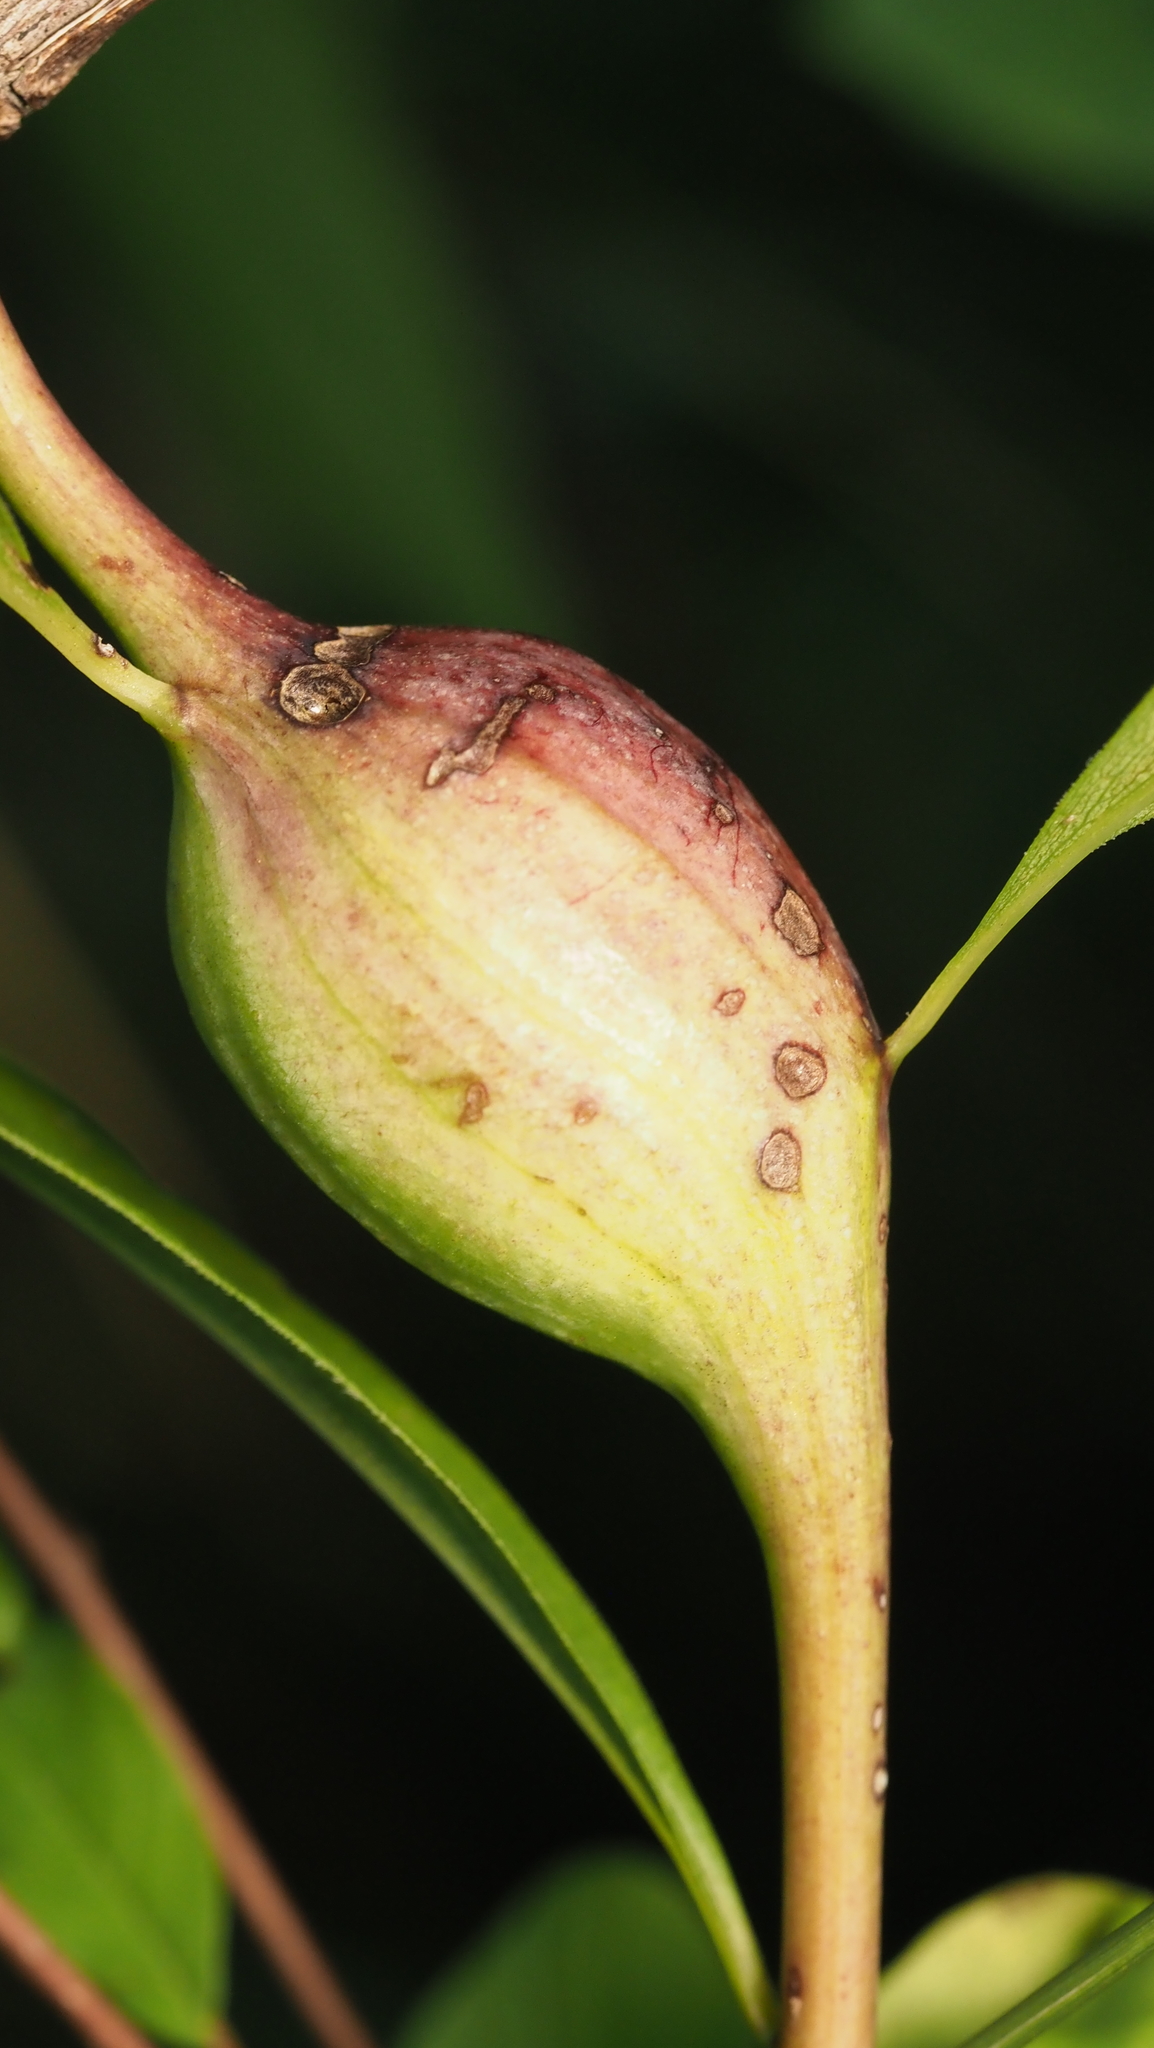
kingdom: Animalia
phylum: Arthropoda
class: Insecta
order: Diptera
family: Tephritidae
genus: Eurosta
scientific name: Eurosta solidaginis
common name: Goldenrod gall fly
